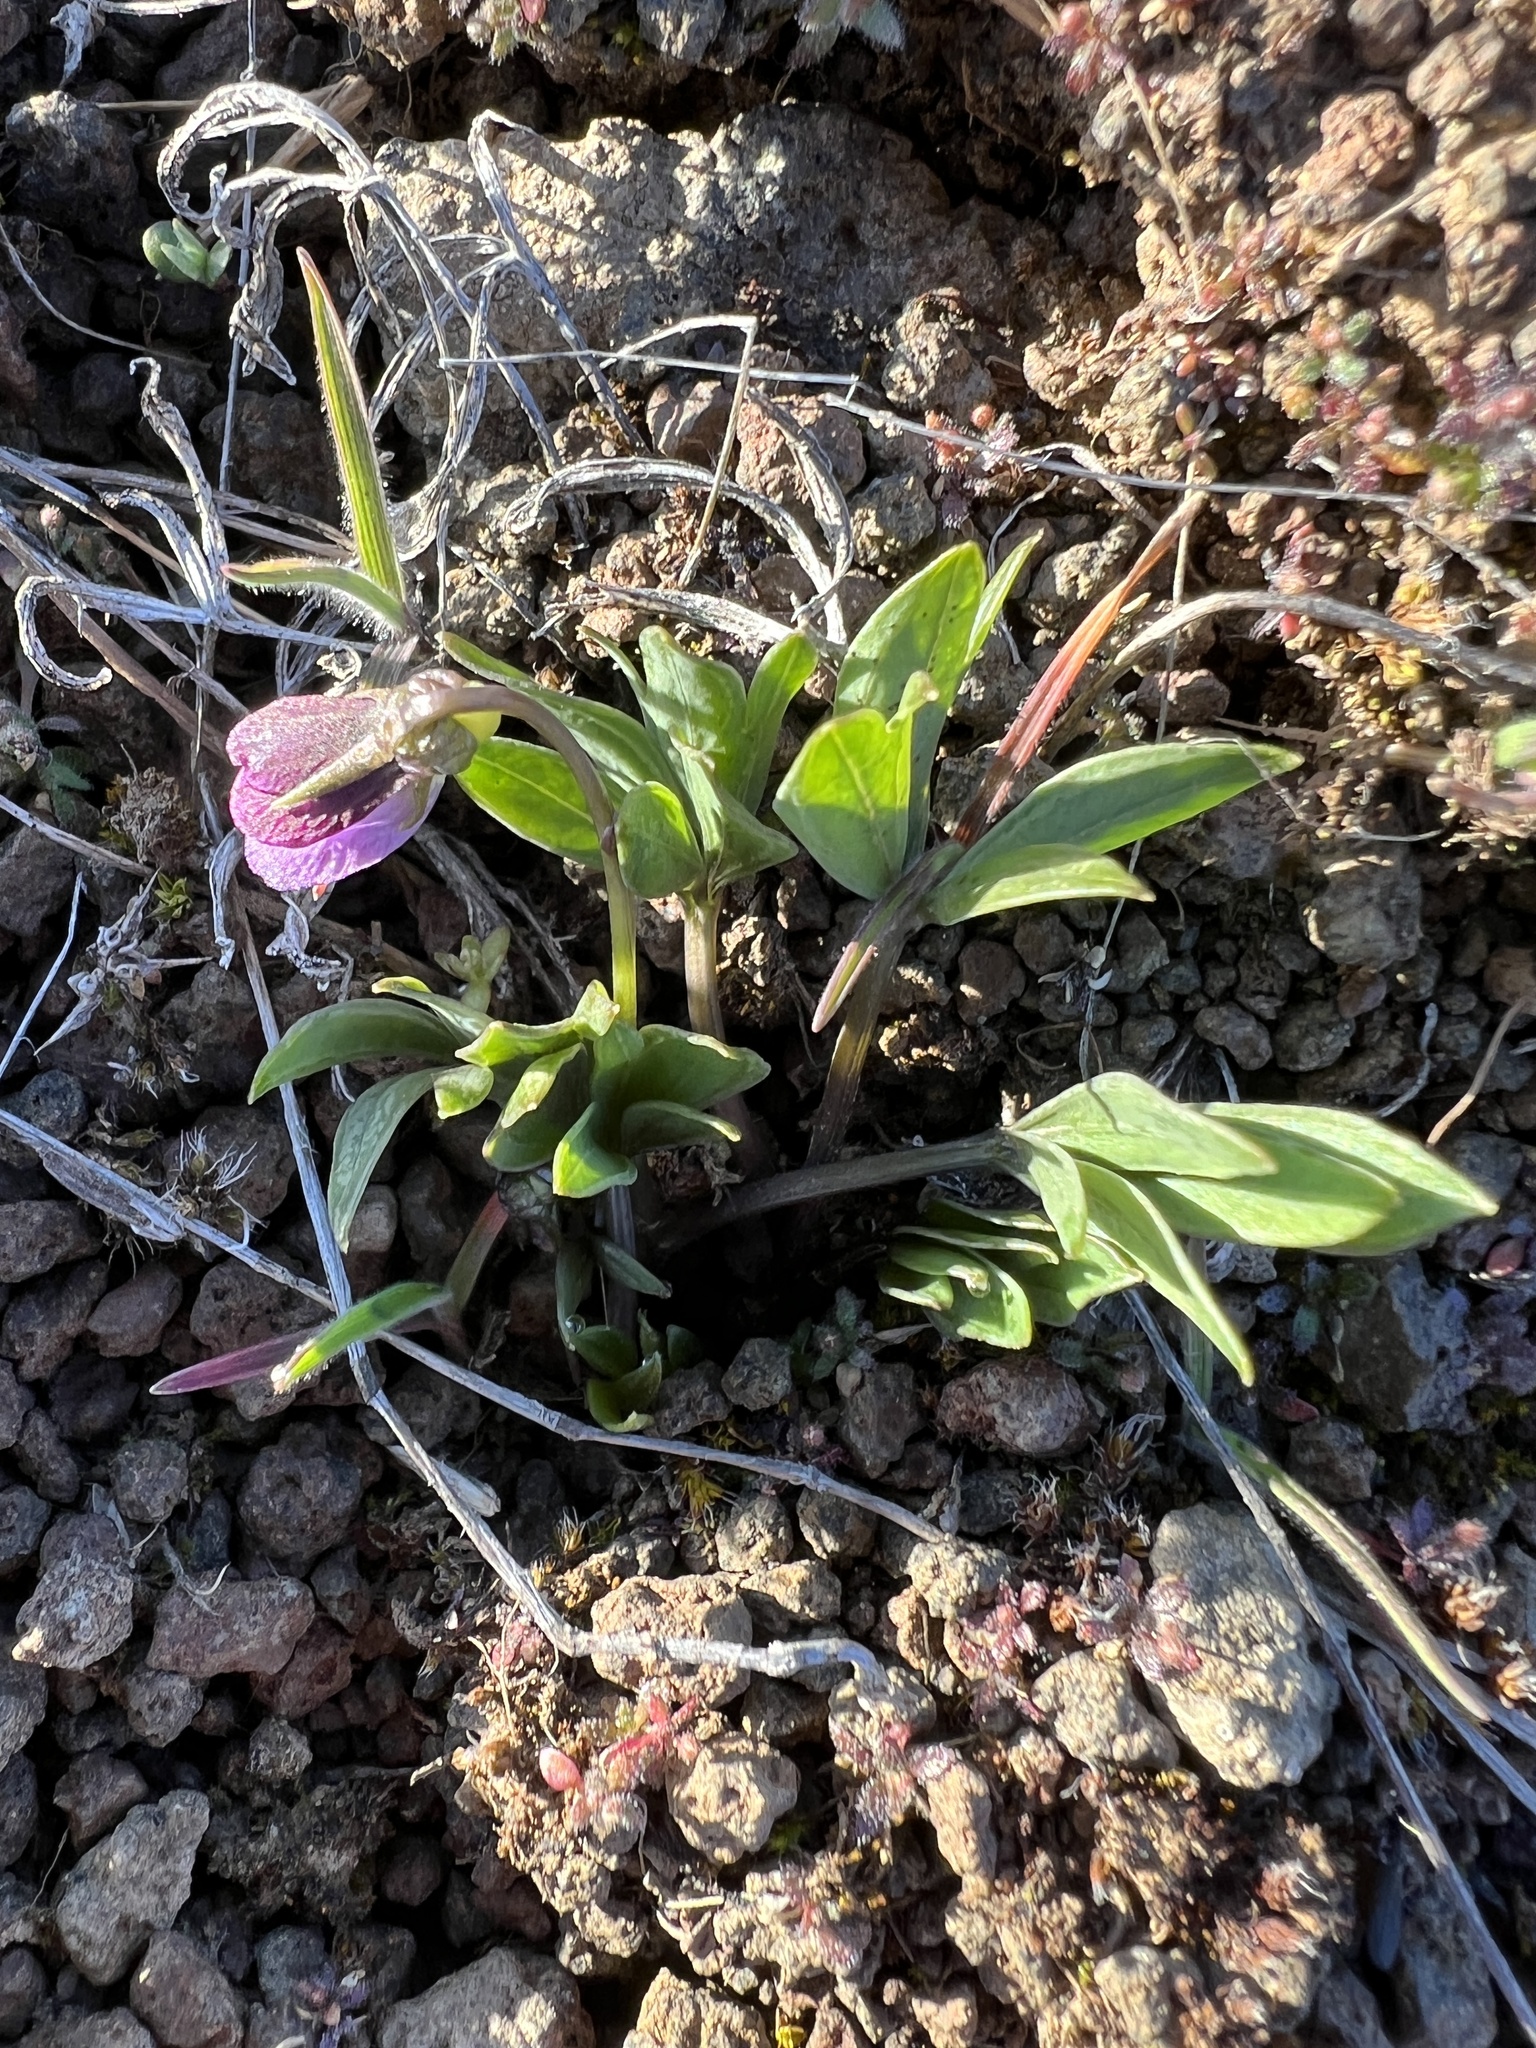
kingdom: Plantae
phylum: Tracheophyta
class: Magnoliopsida
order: Malpighiales
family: Violaceae
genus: Viola
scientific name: Viola trinervata
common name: Sagebrush violet
